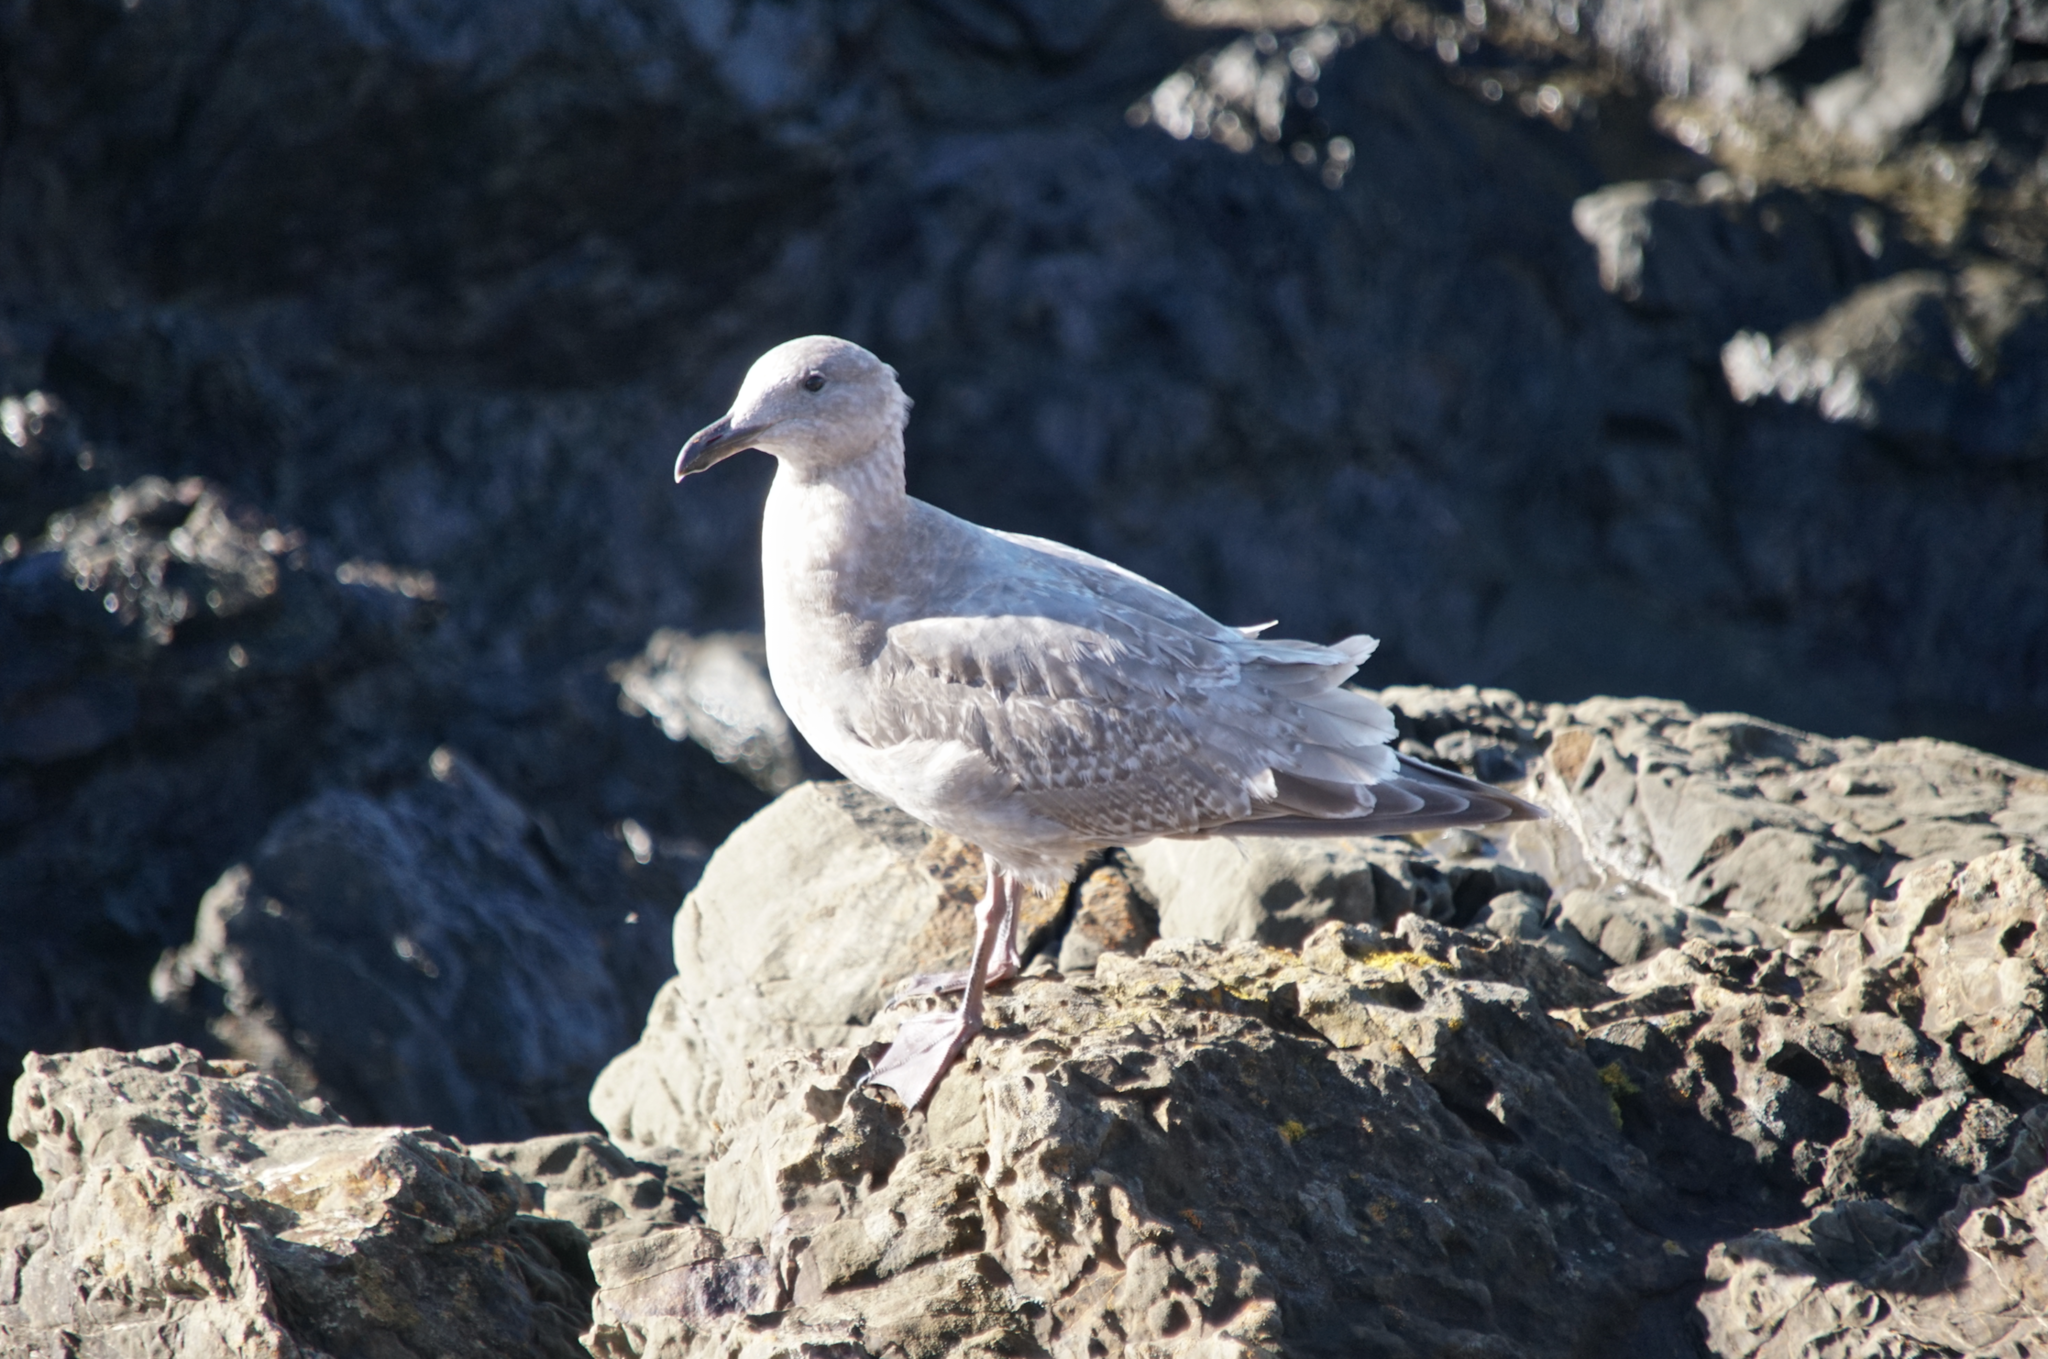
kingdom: Animalia
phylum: Chordata
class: Aves
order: Charadriiformes
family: Laridae
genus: Larus
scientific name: Larus glaucescens
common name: Glaucous-winged gull
